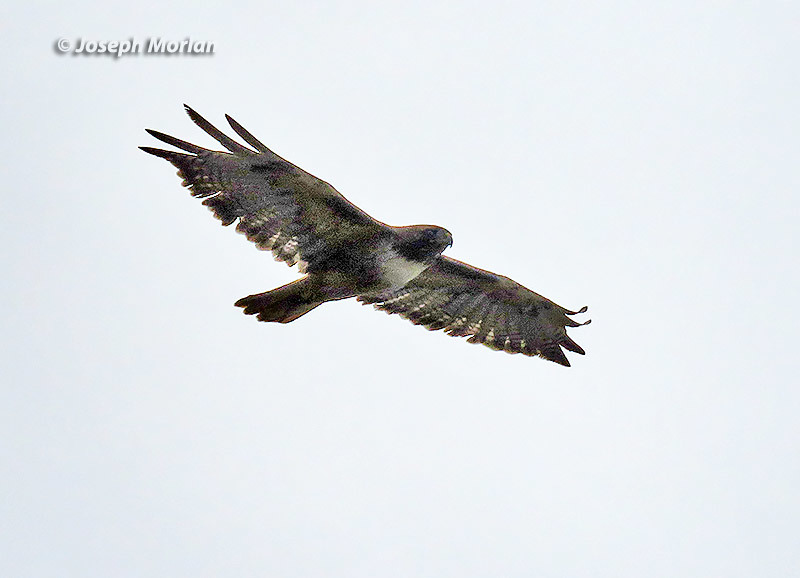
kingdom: Animalia
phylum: Chordata
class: Aves
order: Accipitriformes
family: Accipitridae
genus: Buteo
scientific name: Buteo jamaicensis
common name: Red-tailed hawk
